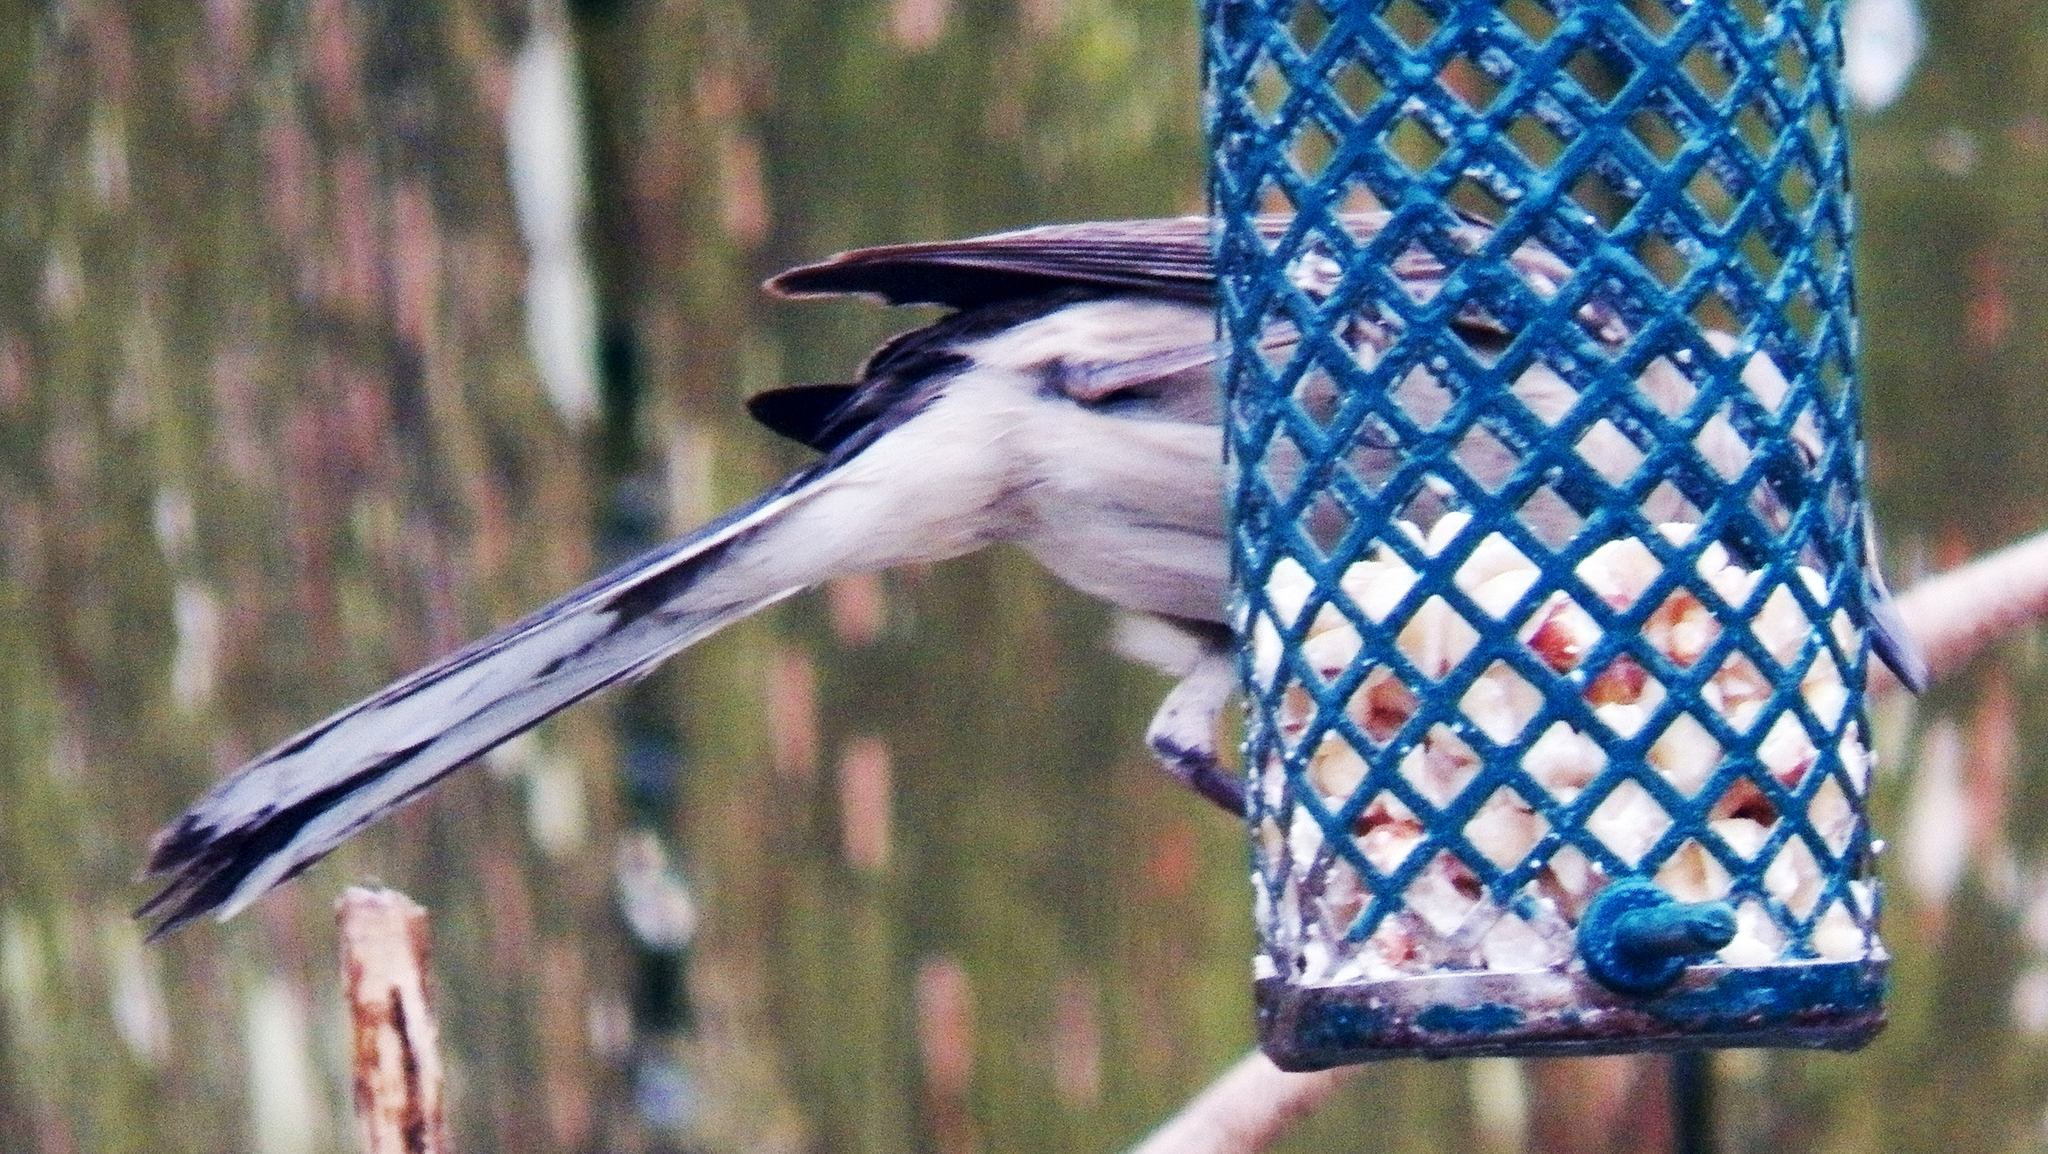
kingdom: Animalia
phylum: Chordata
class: Aves
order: Passeriformes
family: Mimidae
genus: Mimus
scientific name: Mimus polyglottos
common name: Northern mockingbird
